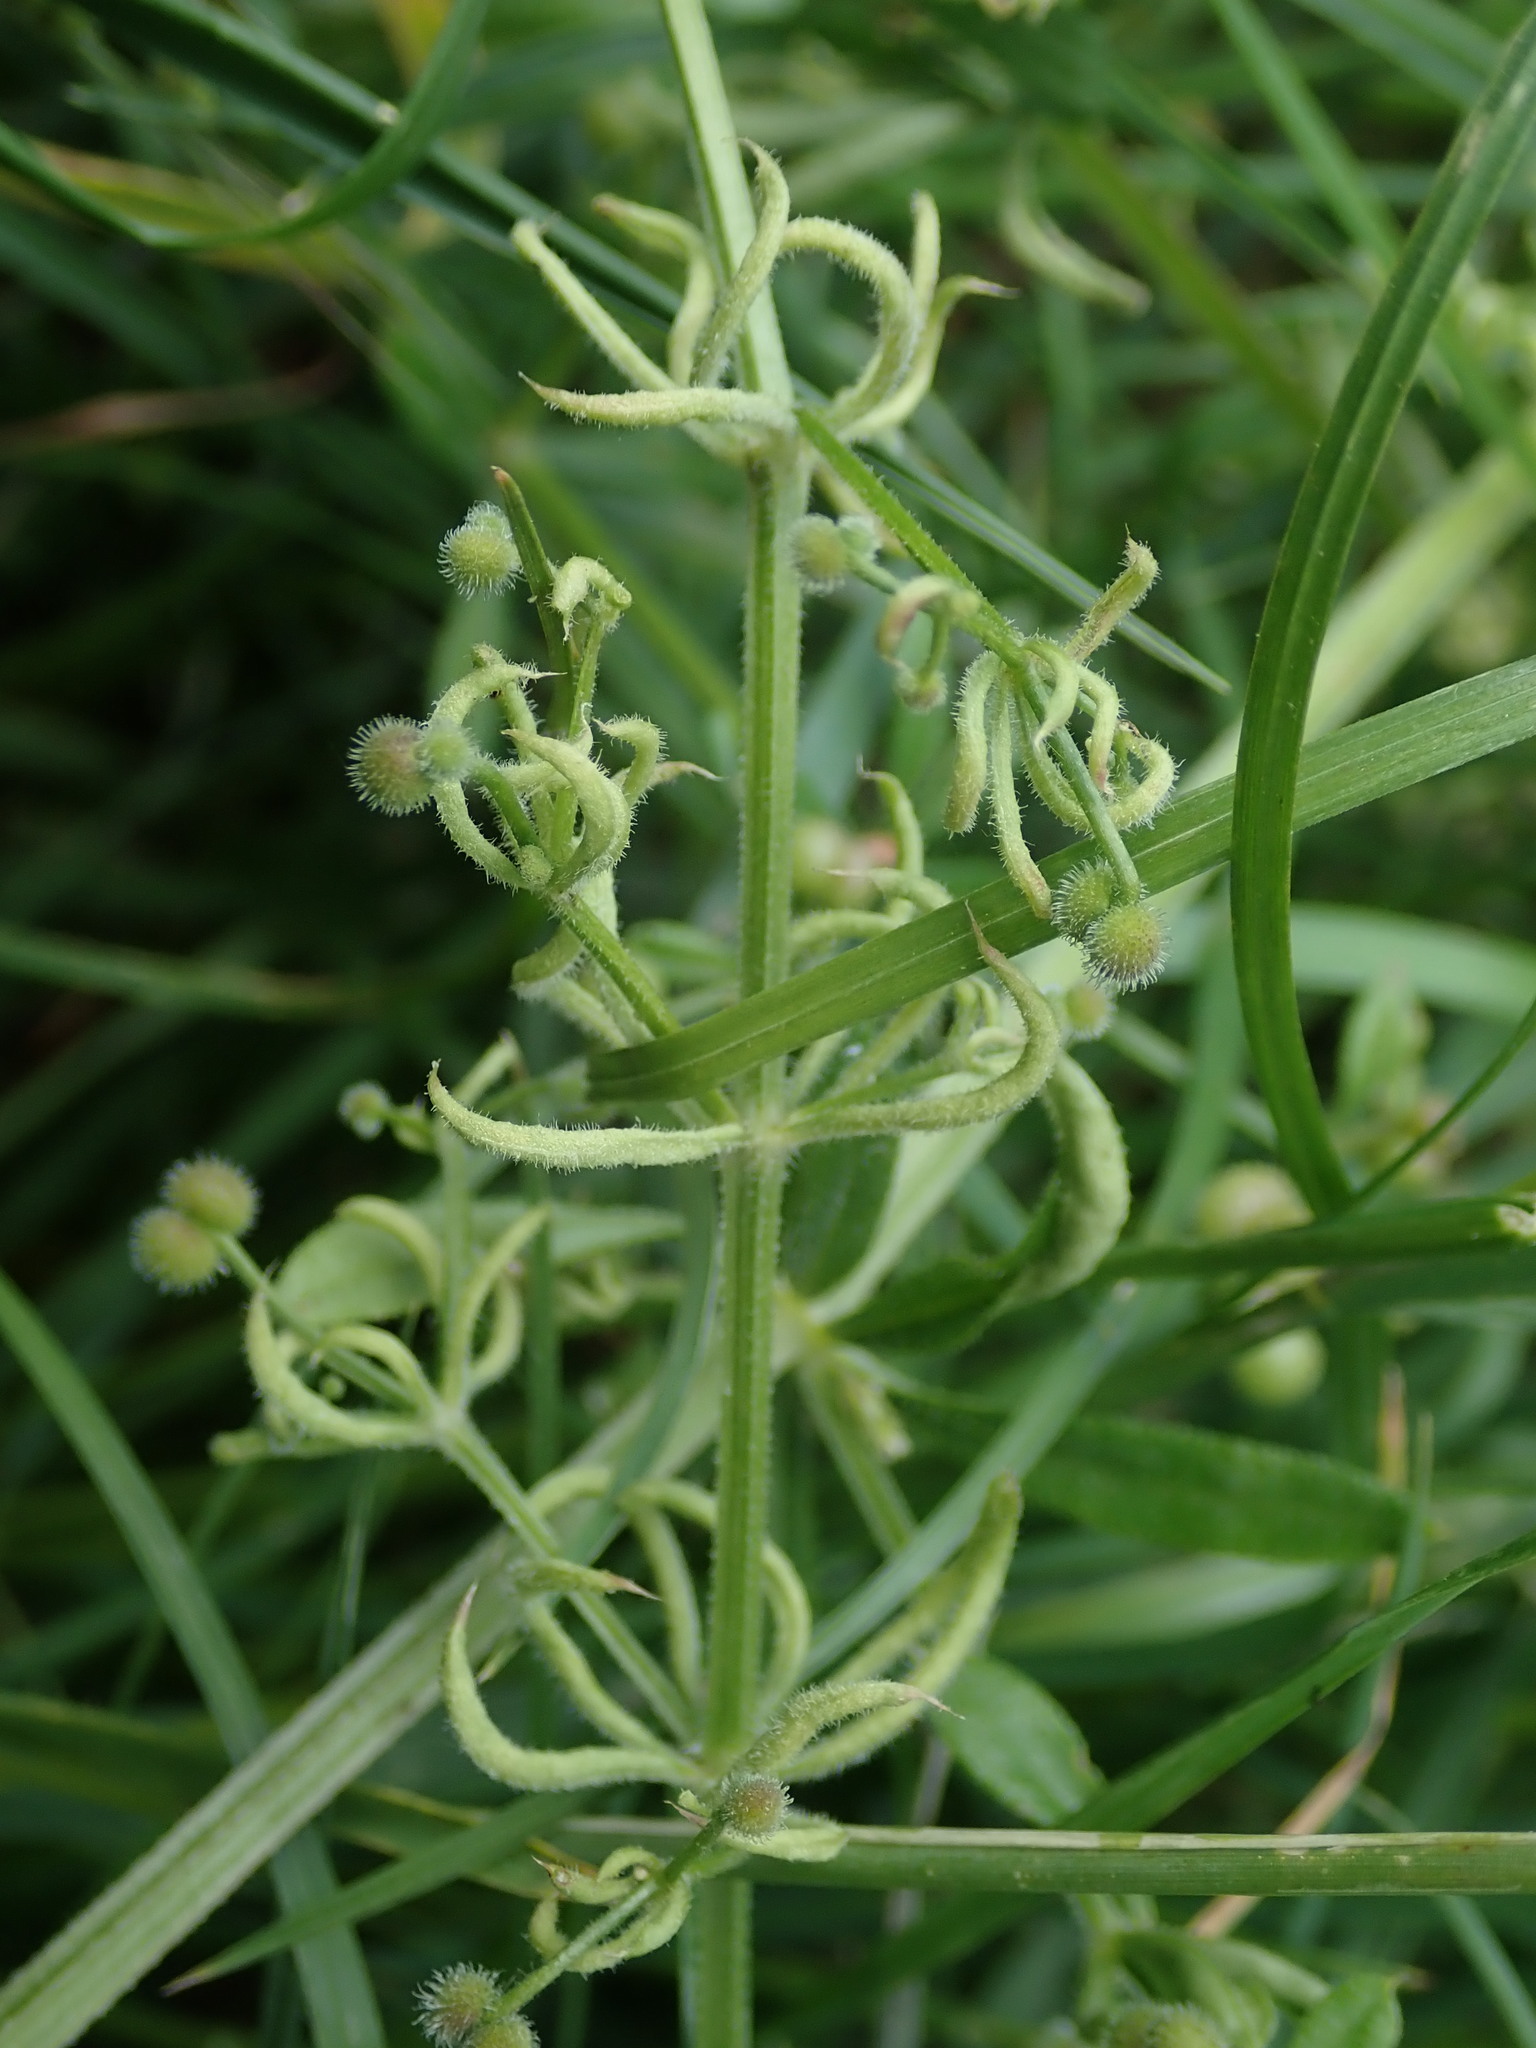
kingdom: Animalia
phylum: Arthropoda
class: Arachnida
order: Trombidiformes
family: Eriophyidae
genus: Cecidophyes
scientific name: Cecidophyes rouhollahi
